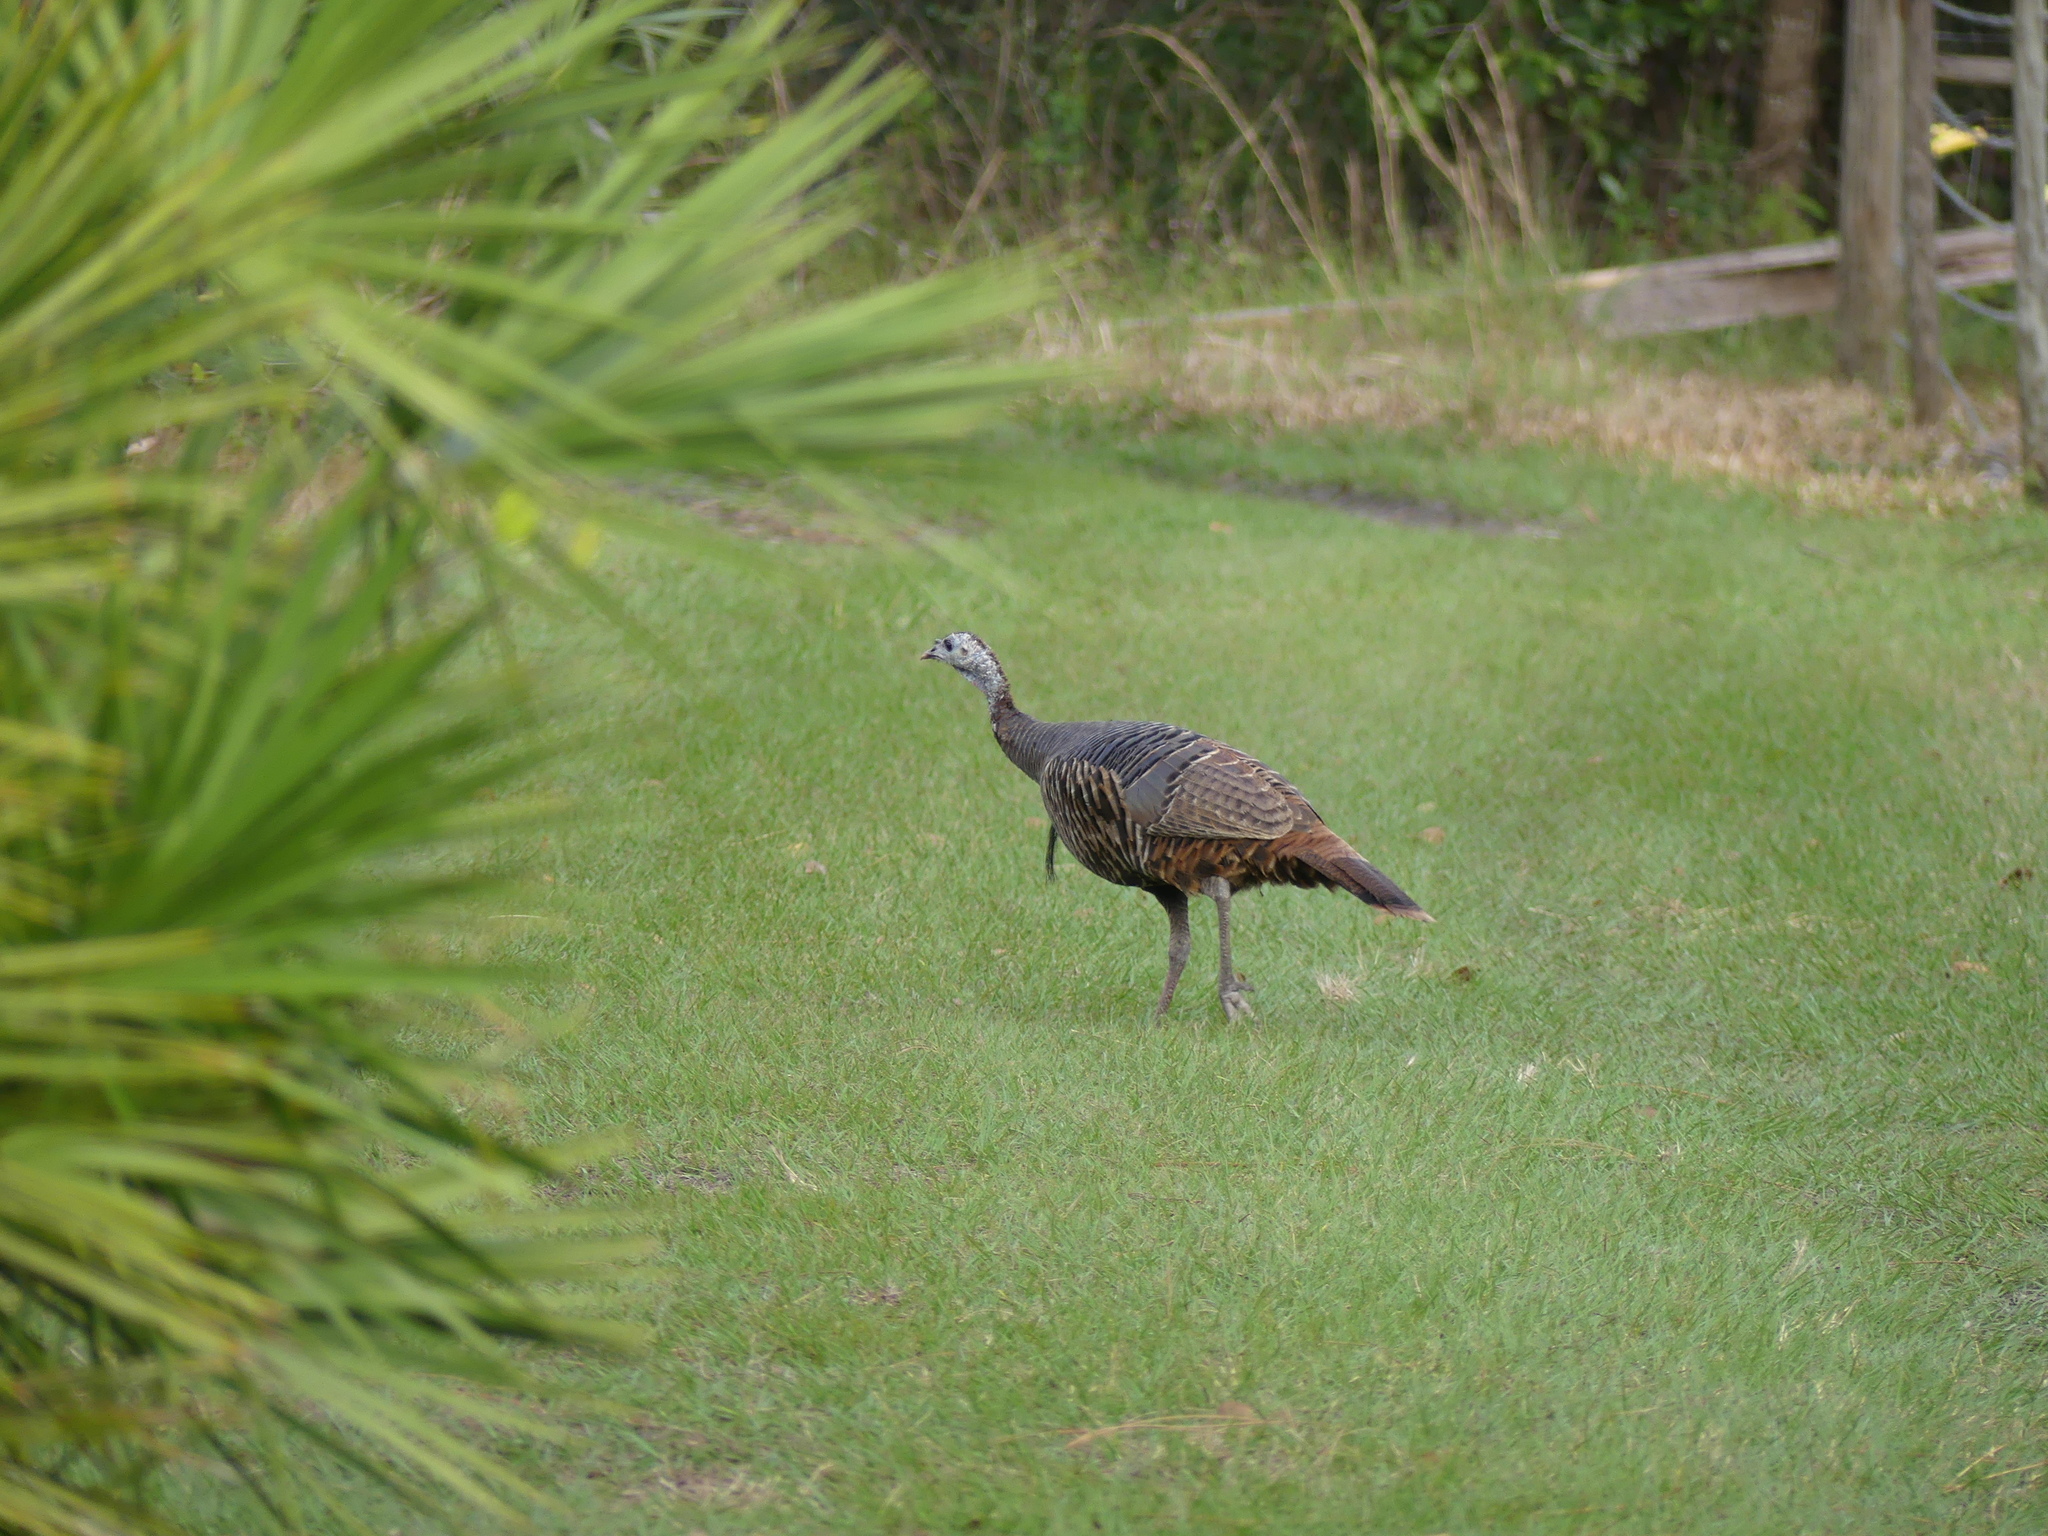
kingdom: Animalia
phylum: Chordata
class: Aves
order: Galliformes
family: Phasianidae
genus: Meleagris
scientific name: Meleagris gallopavo
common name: Wild turkey
